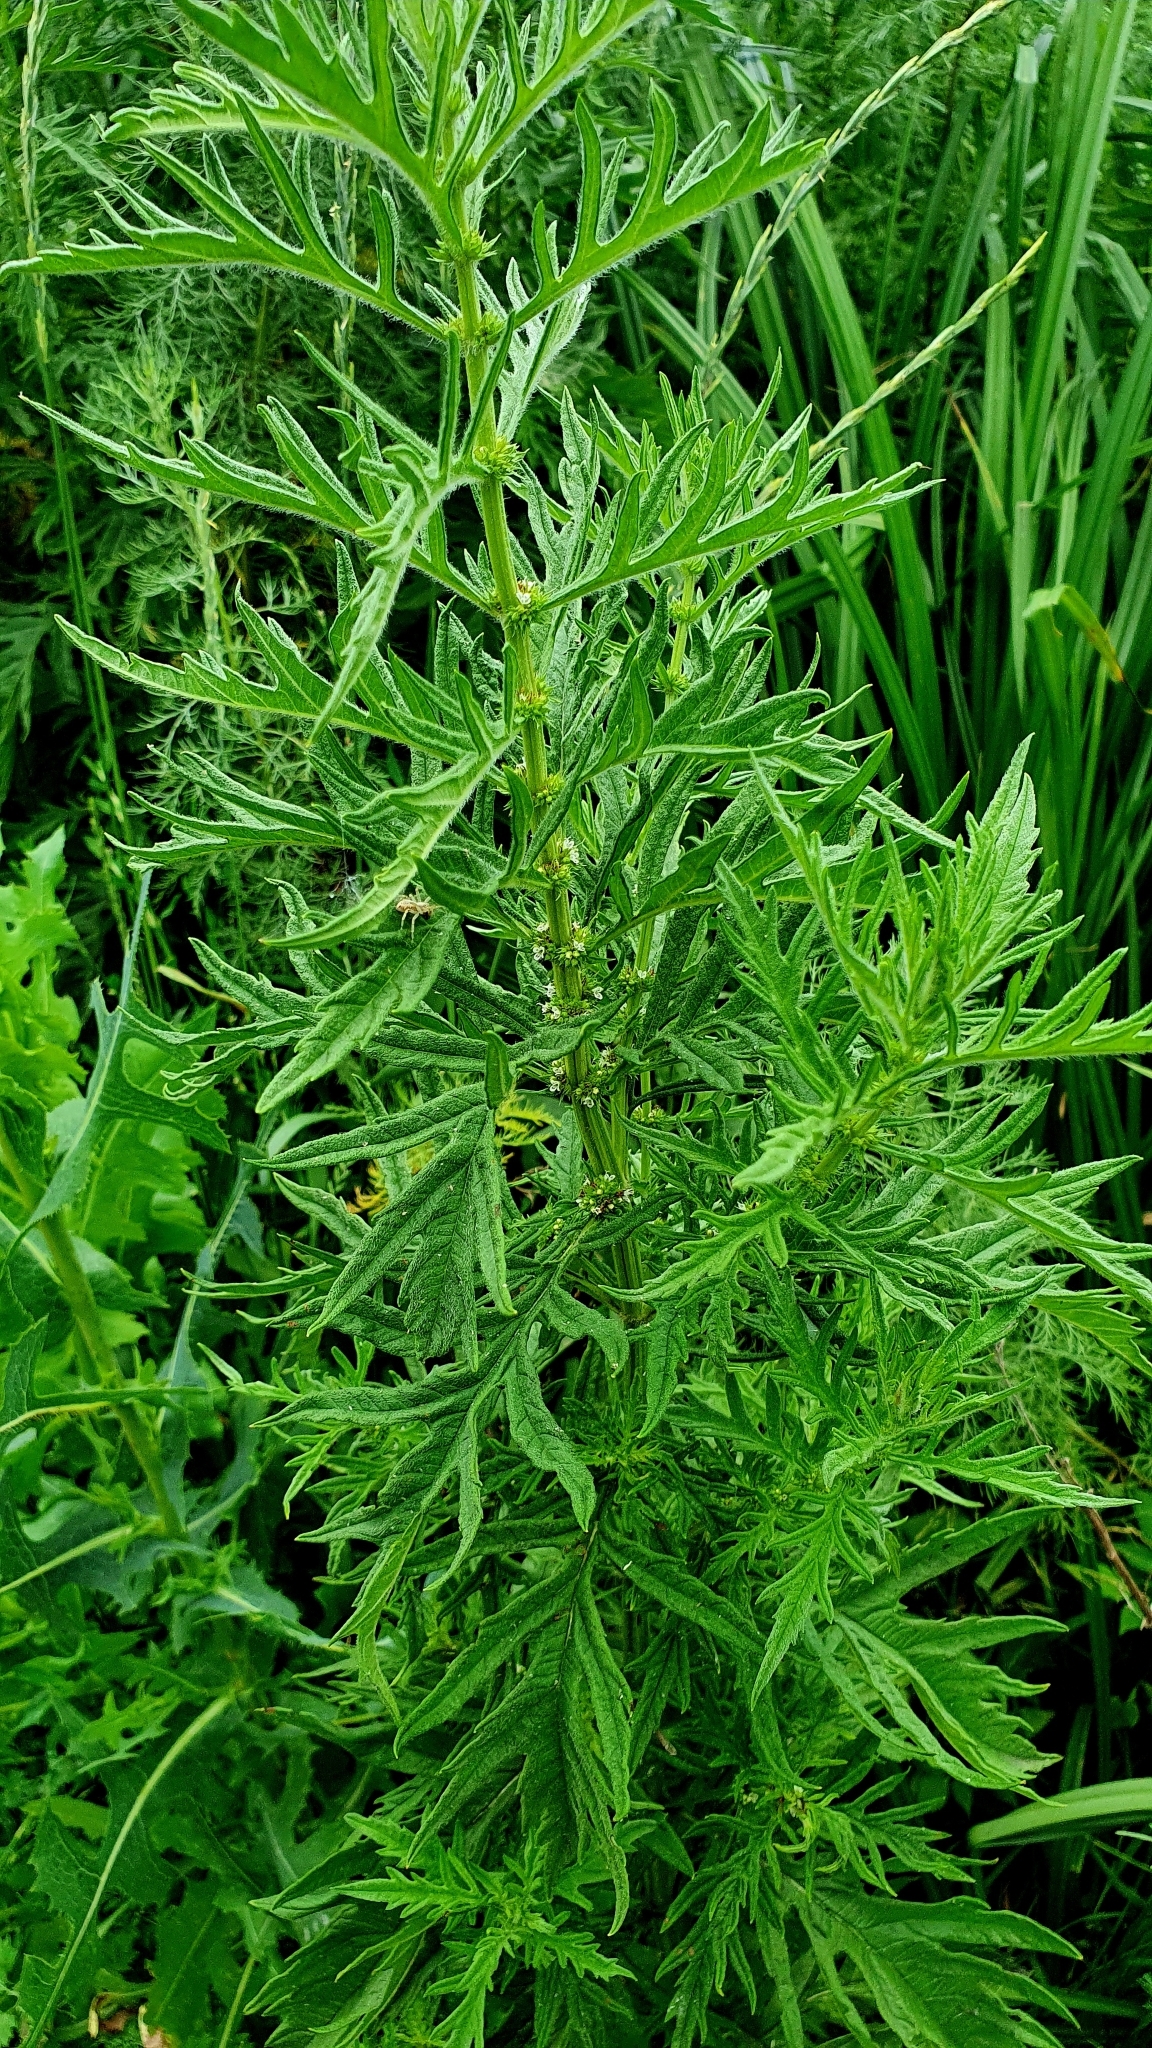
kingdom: Plantae
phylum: Tracheophyta
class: Magnoliopsida
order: Lamiales
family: Lamiaceae
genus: Lycopus
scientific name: Lycopus exaltatus
